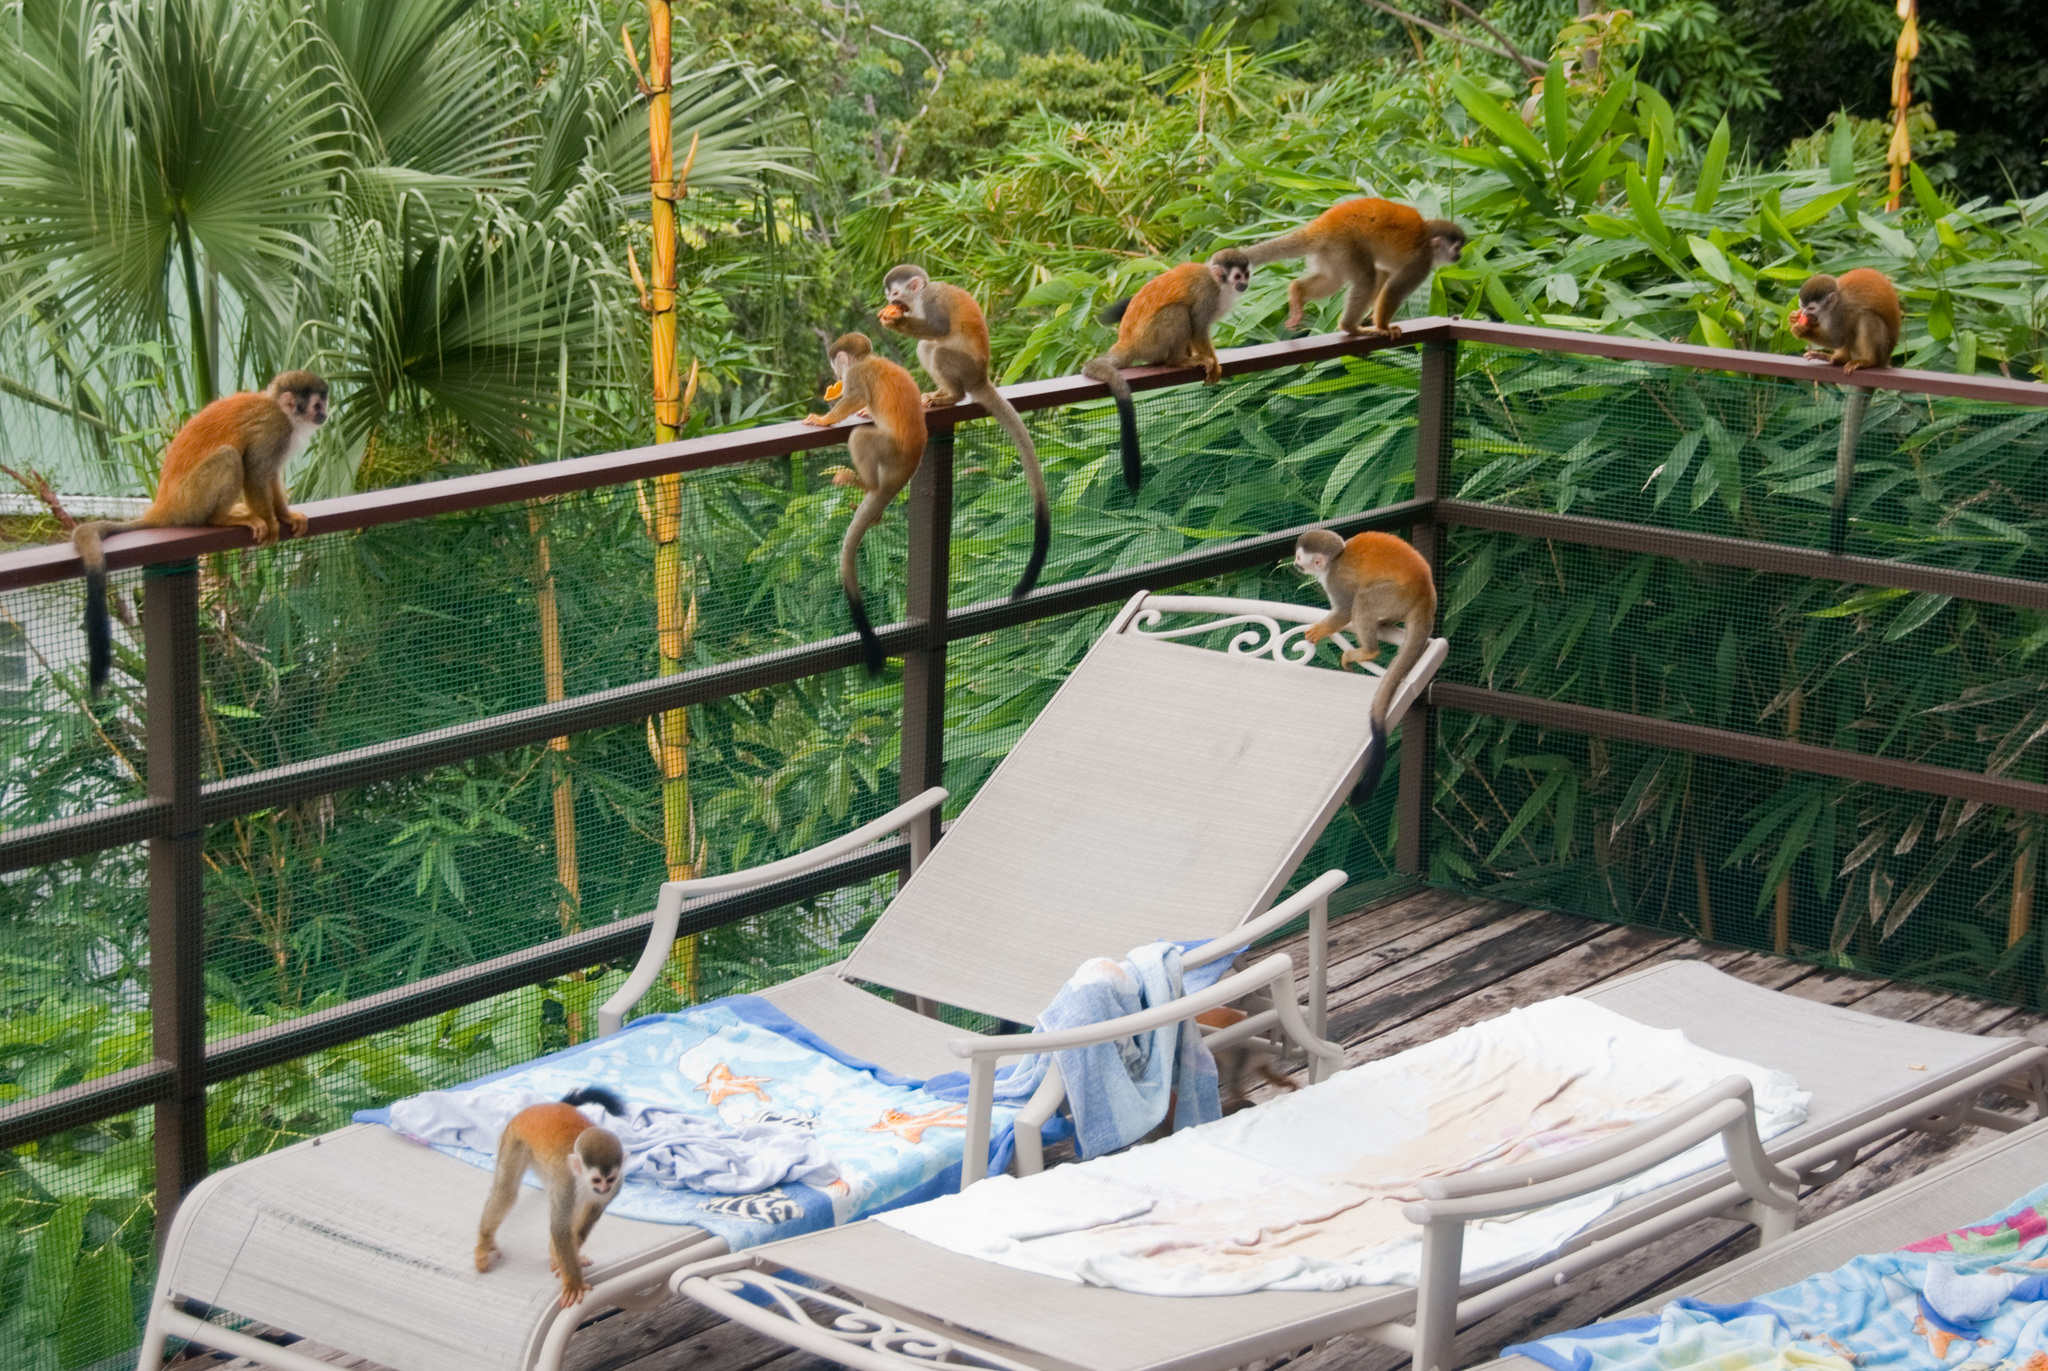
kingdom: Animalia
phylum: Chordata
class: Mammalia
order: Primates
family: Cebidae
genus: Saimiri
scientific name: Saimiri oerstedii
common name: Central american squirrel monkey
